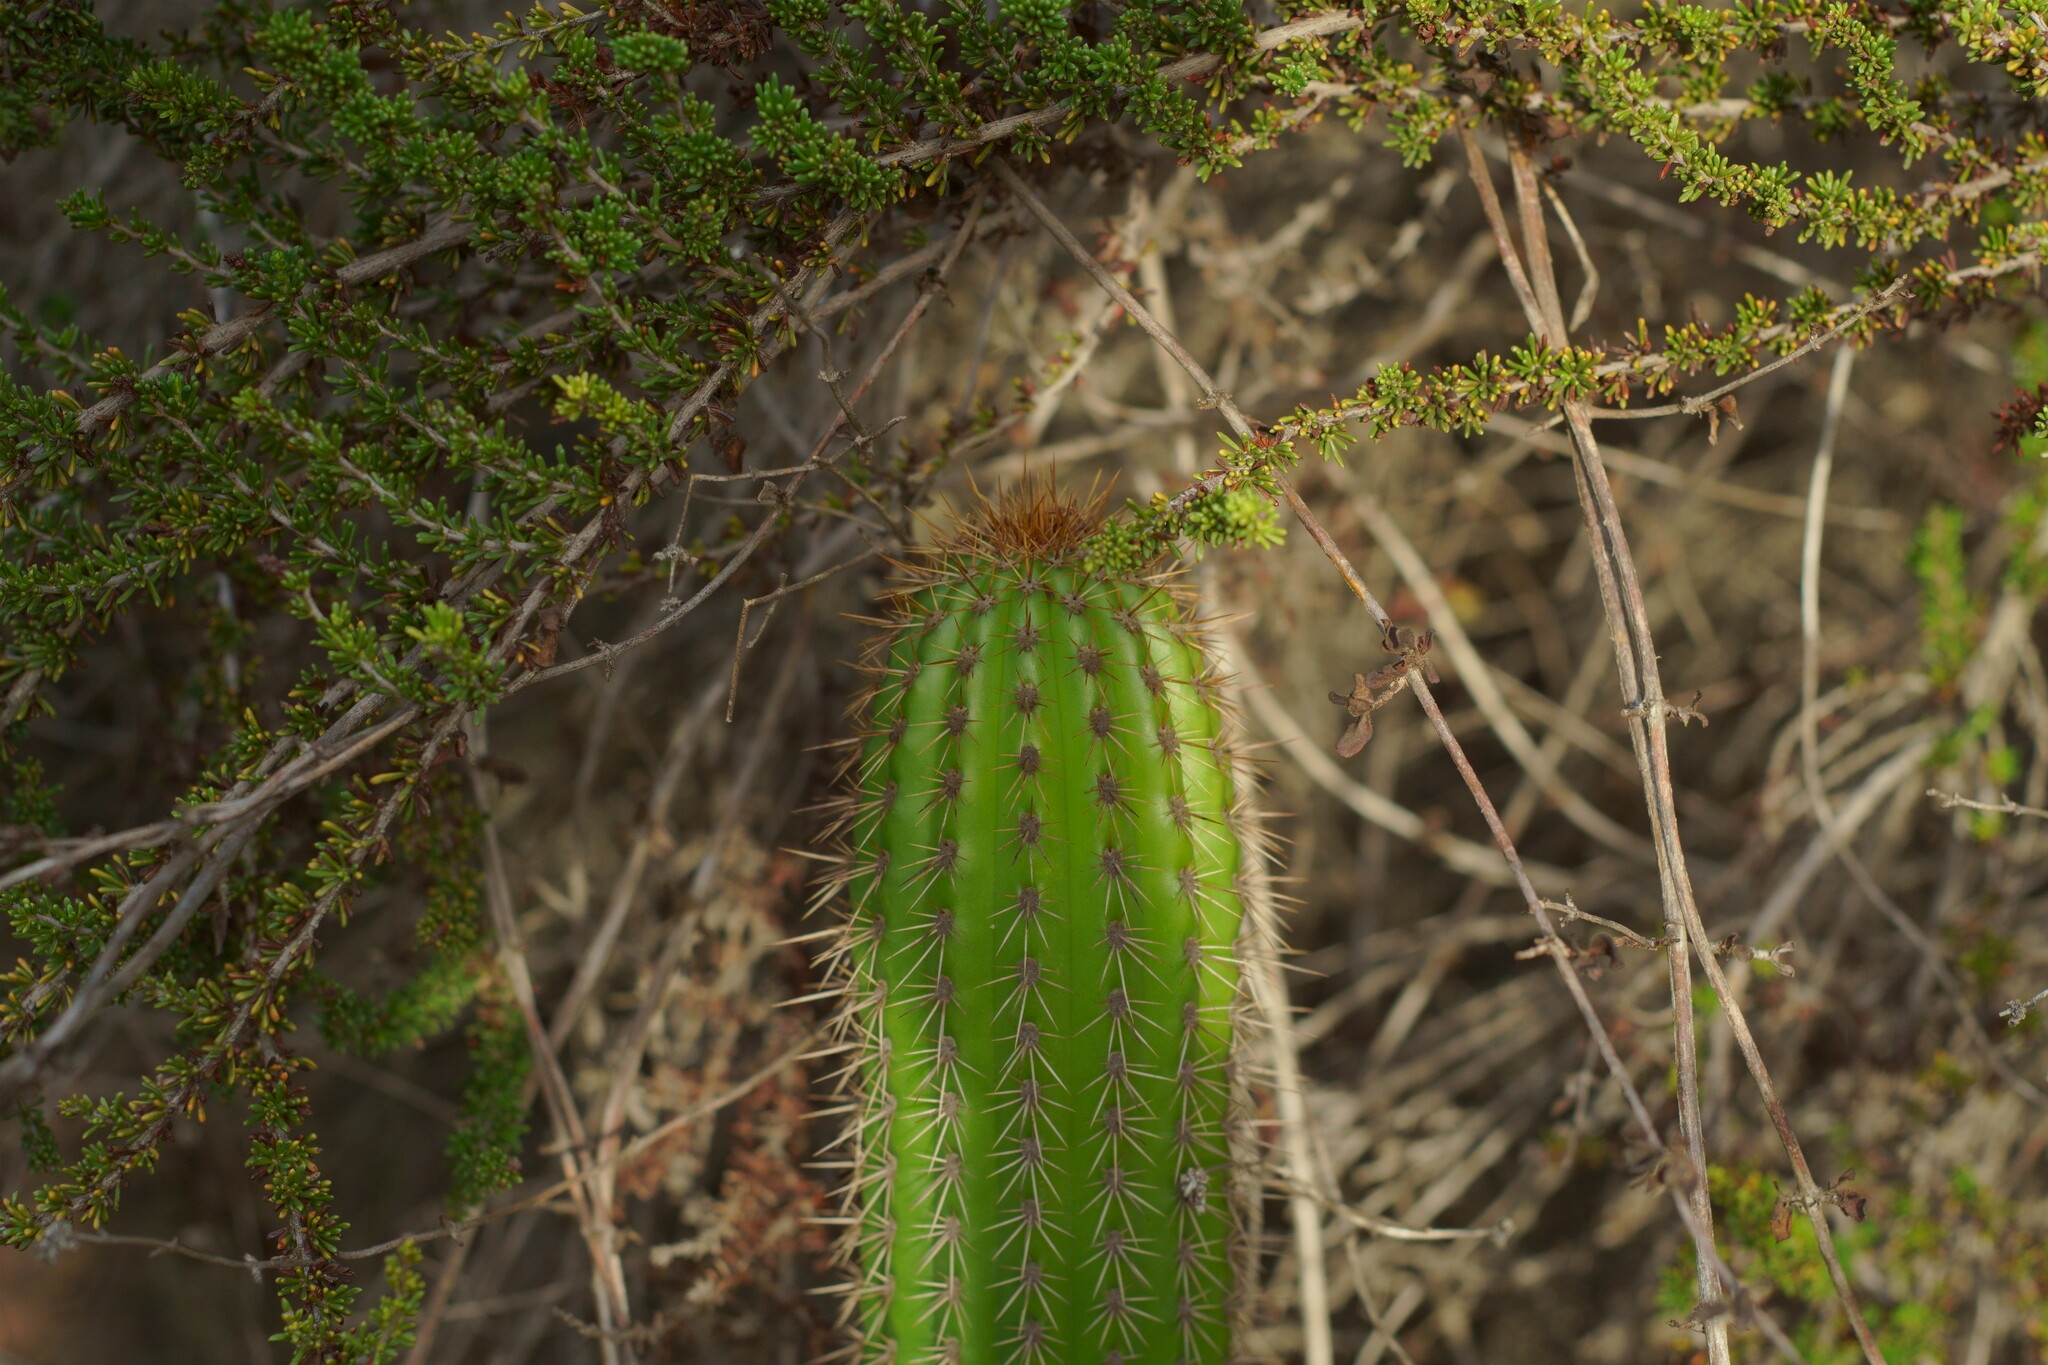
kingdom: Plantae
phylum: Tracheophyta
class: Magnoliopsida
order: Caryophyllales
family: Cactaceae
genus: Soehrensia
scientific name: Soehrensia spachiana
